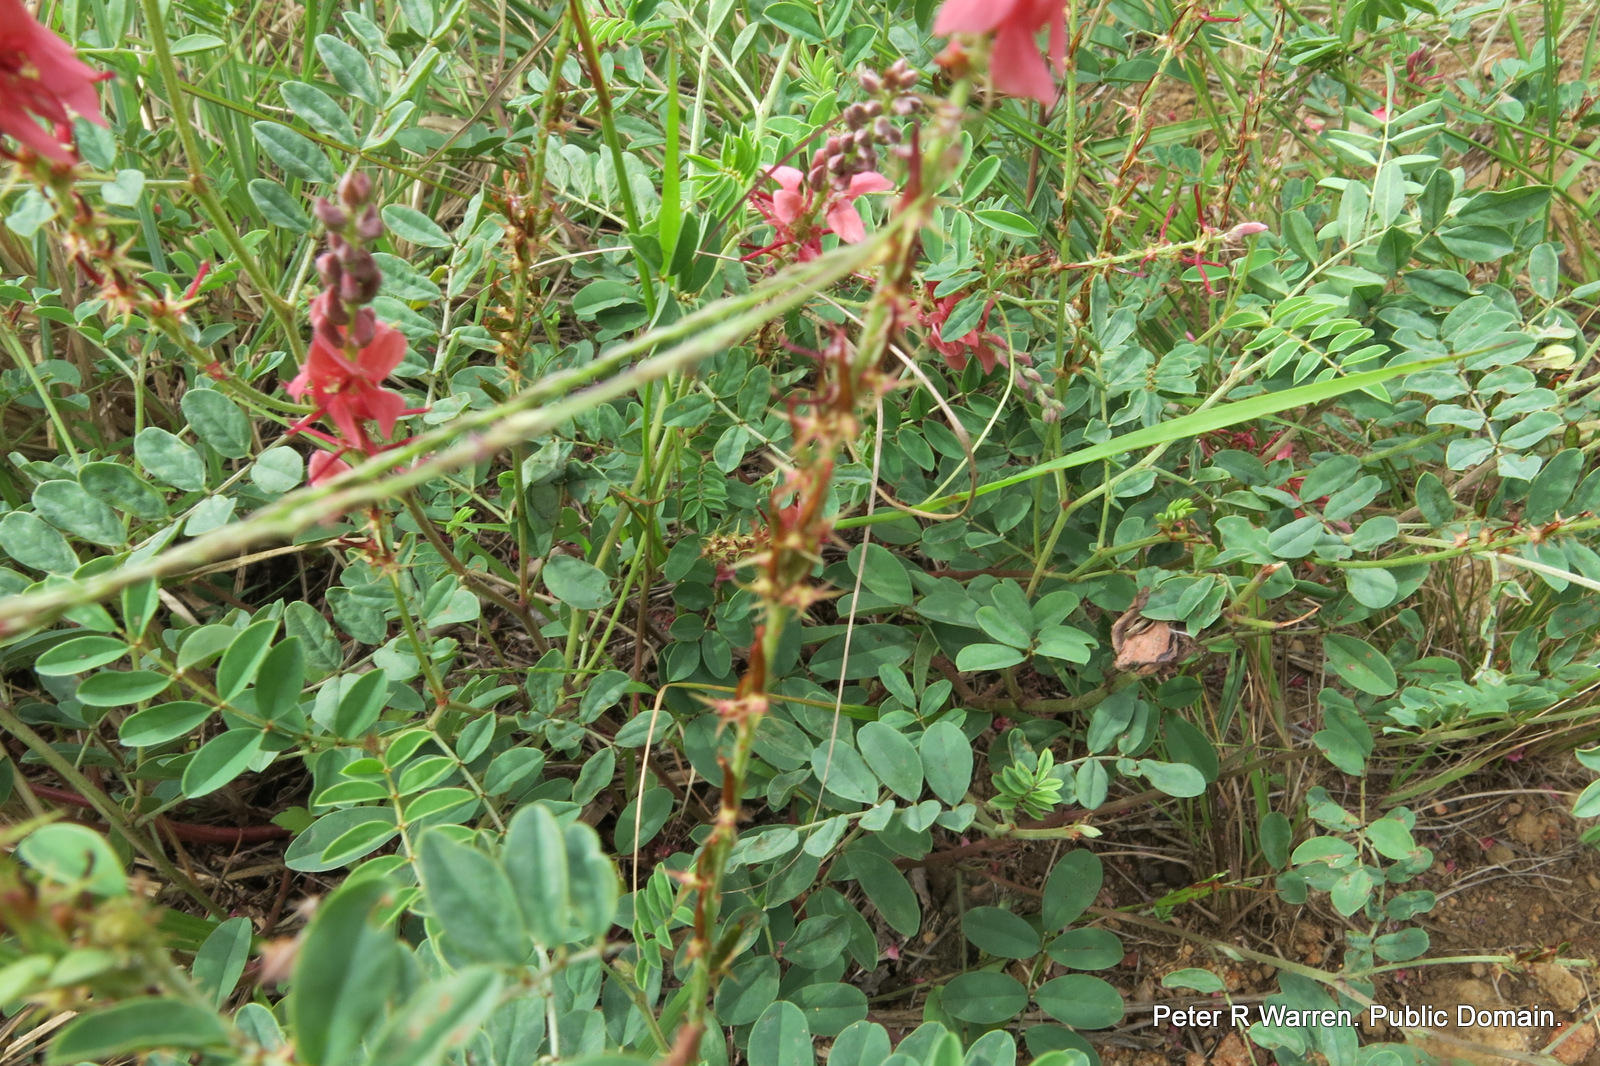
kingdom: Plantae
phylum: Tracheophyta
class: Magnoliopsida
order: Fabales
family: Fabaceae
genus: Indigofera
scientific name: Indigofera williamsonii
